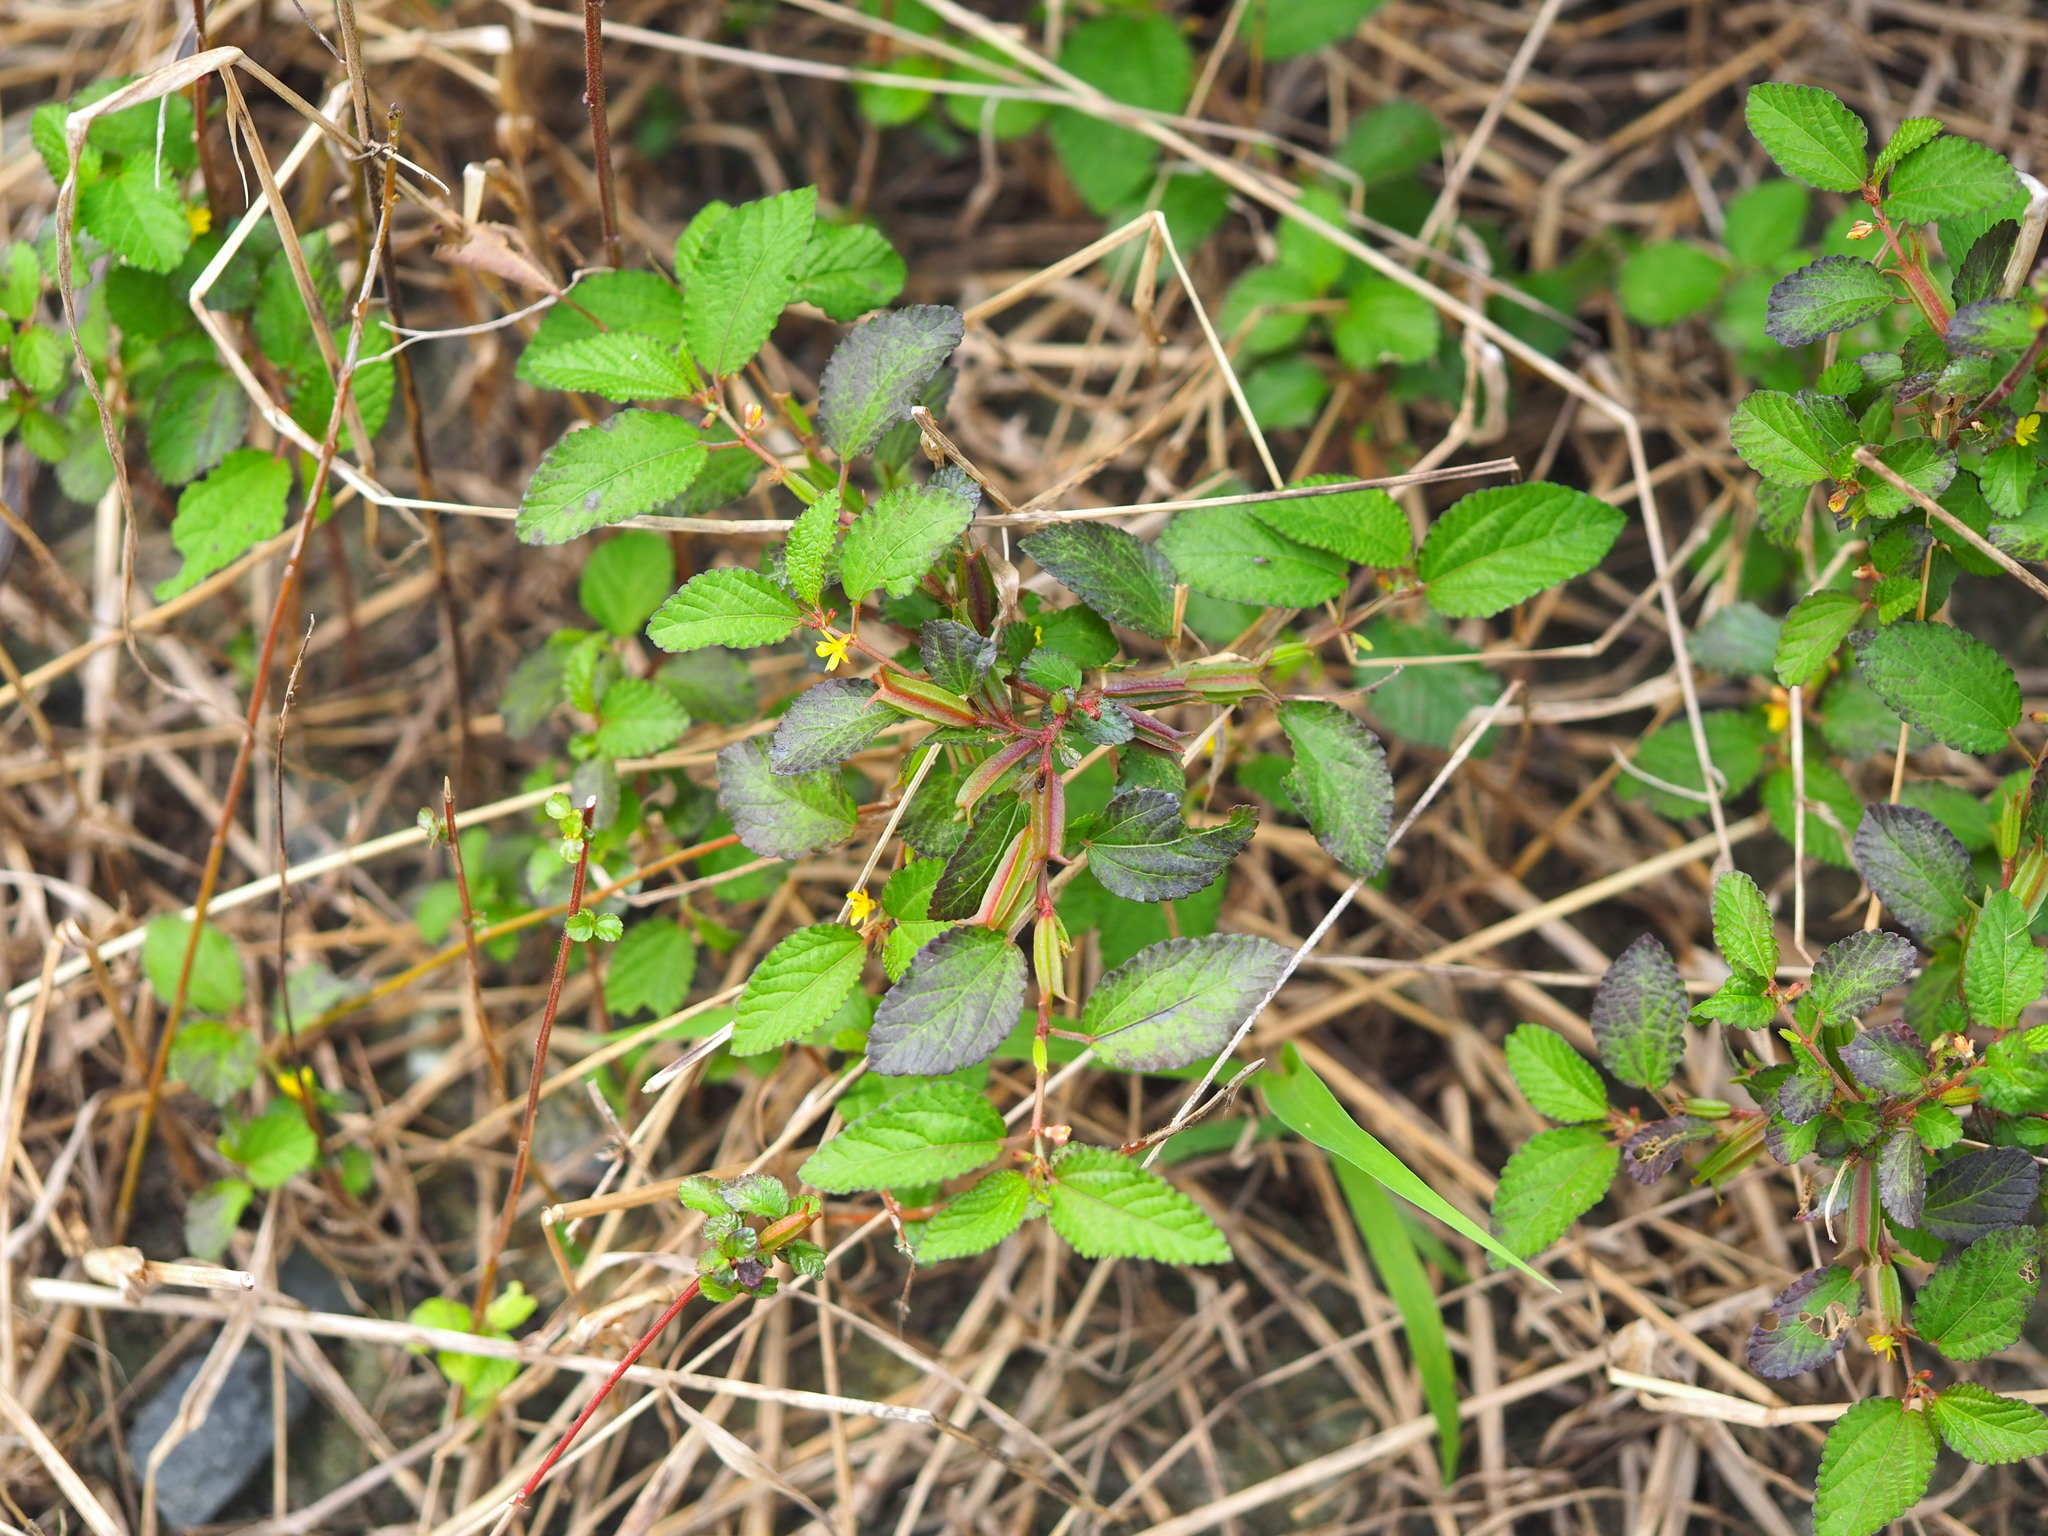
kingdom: Plantae
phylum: Tracheophyta
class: Magnoliopsida
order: Malvales
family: Malvaceae
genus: Corchorus
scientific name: Corchorus aestuans
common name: Jute
